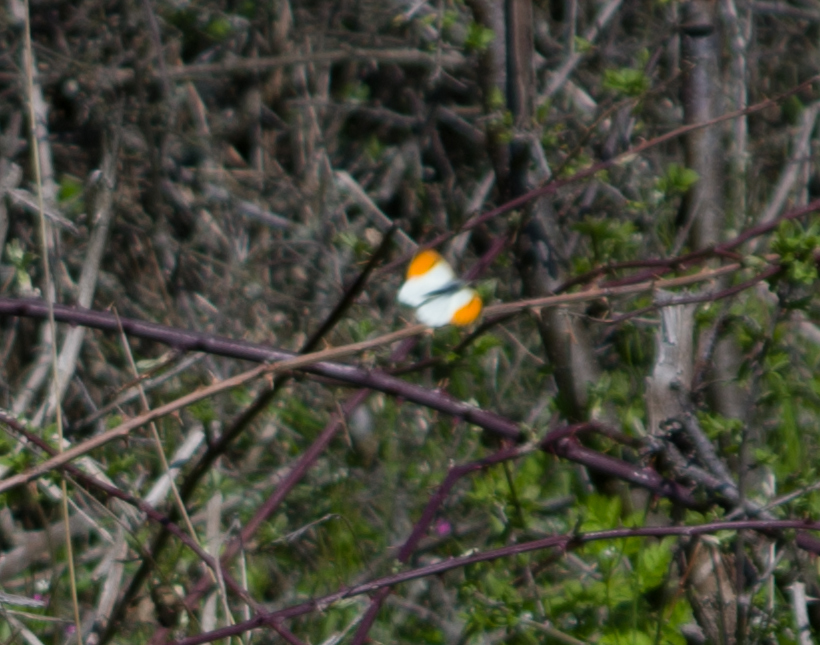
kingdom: Animalia
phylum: Arthropoda
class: Insecta
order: Lepidoptera
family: Pieridae
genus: Anthocharis
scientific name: Anthocharis cardamines
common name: Orange-tip
